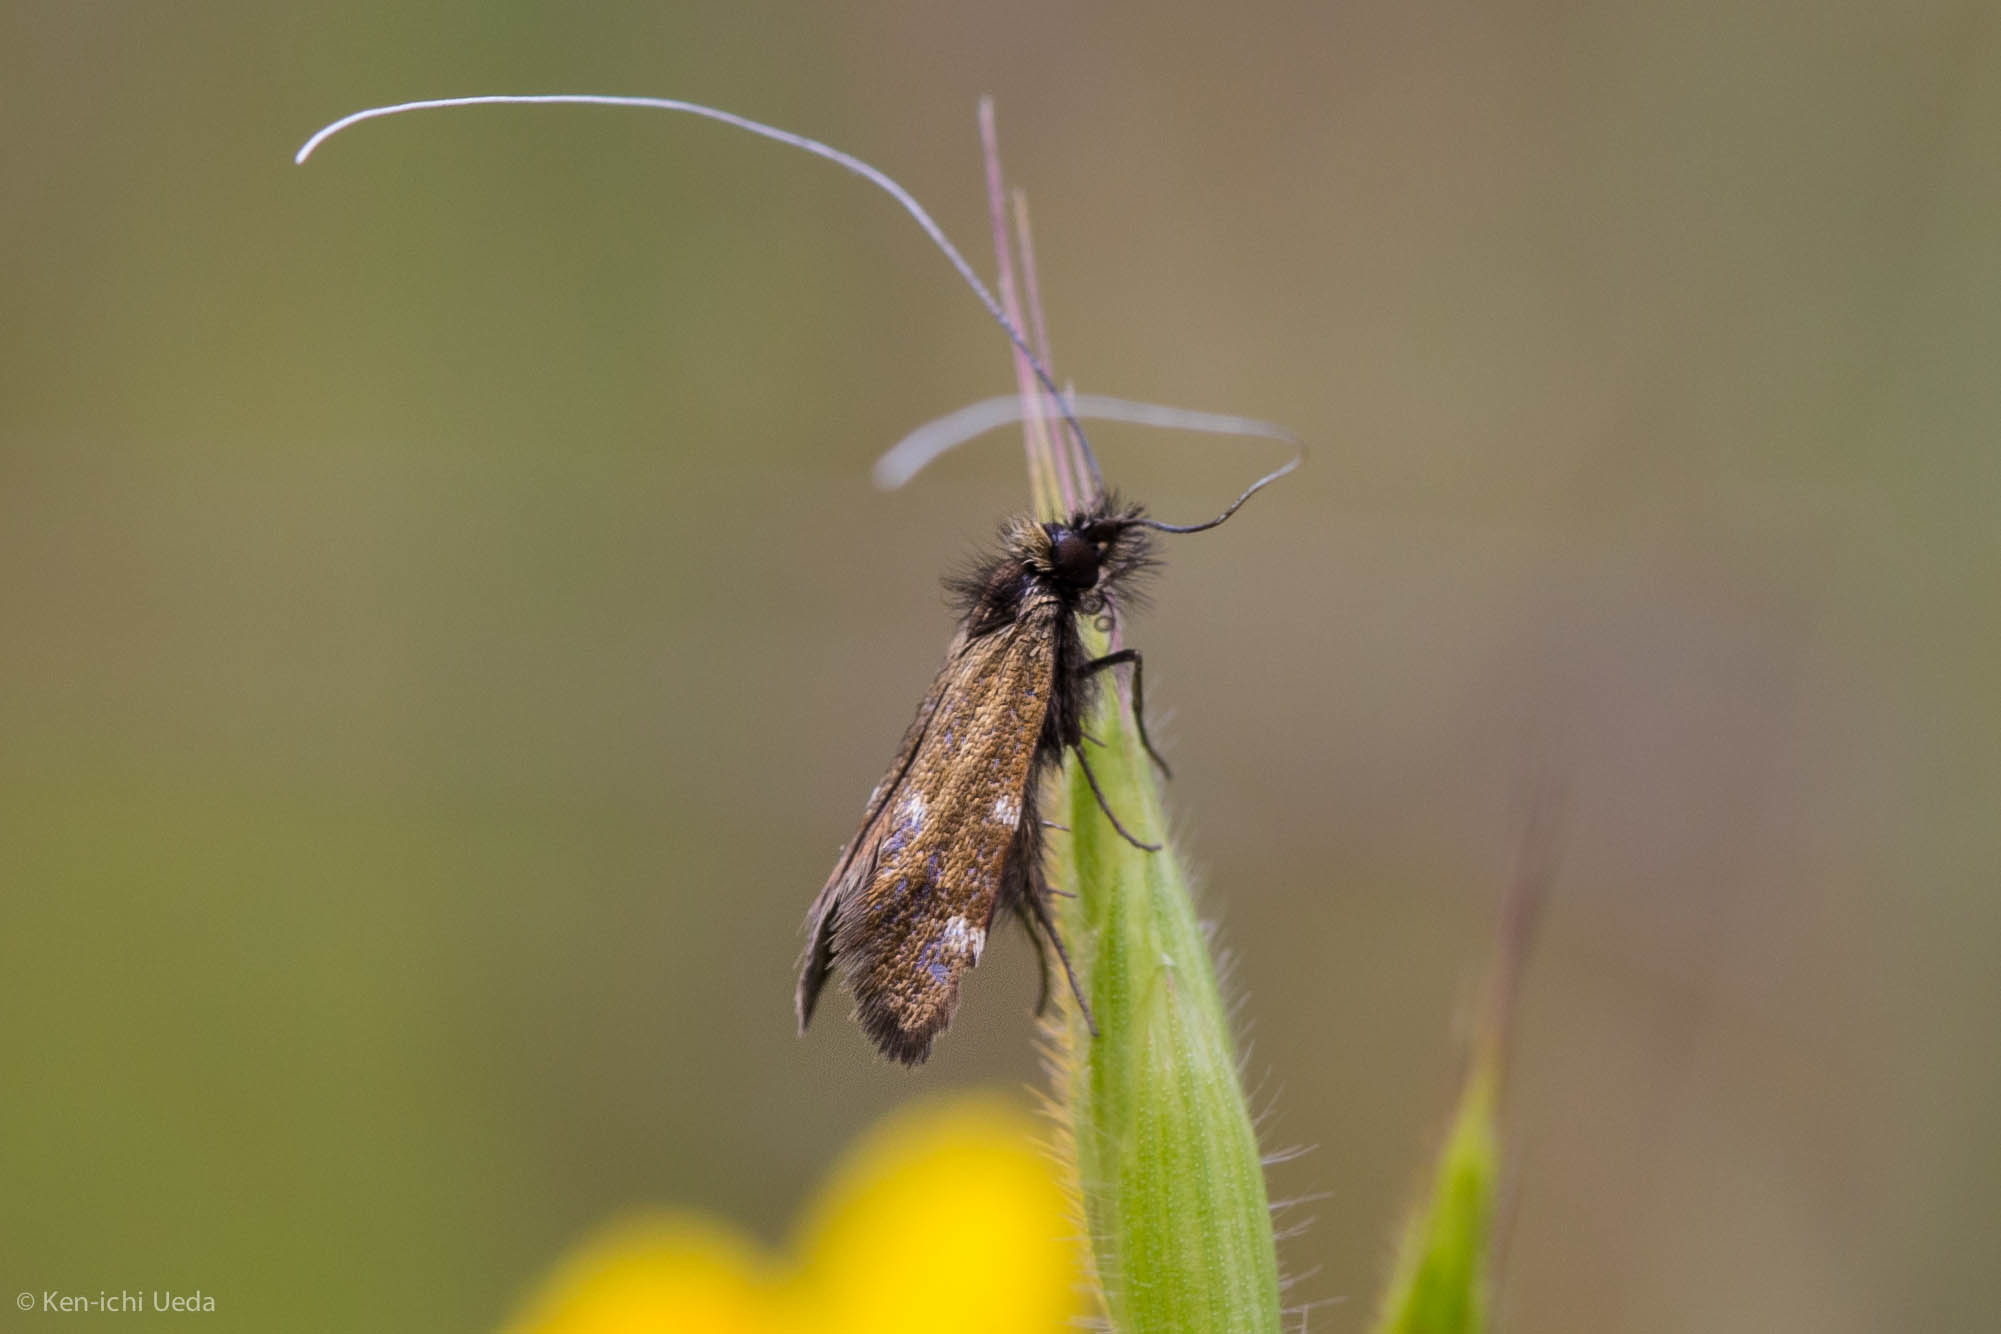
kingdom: Animalia
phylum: Arthropoda
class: Insecta
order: Lepidoptera
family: Adelidae
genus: Adela
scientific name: Adela flammeusella
